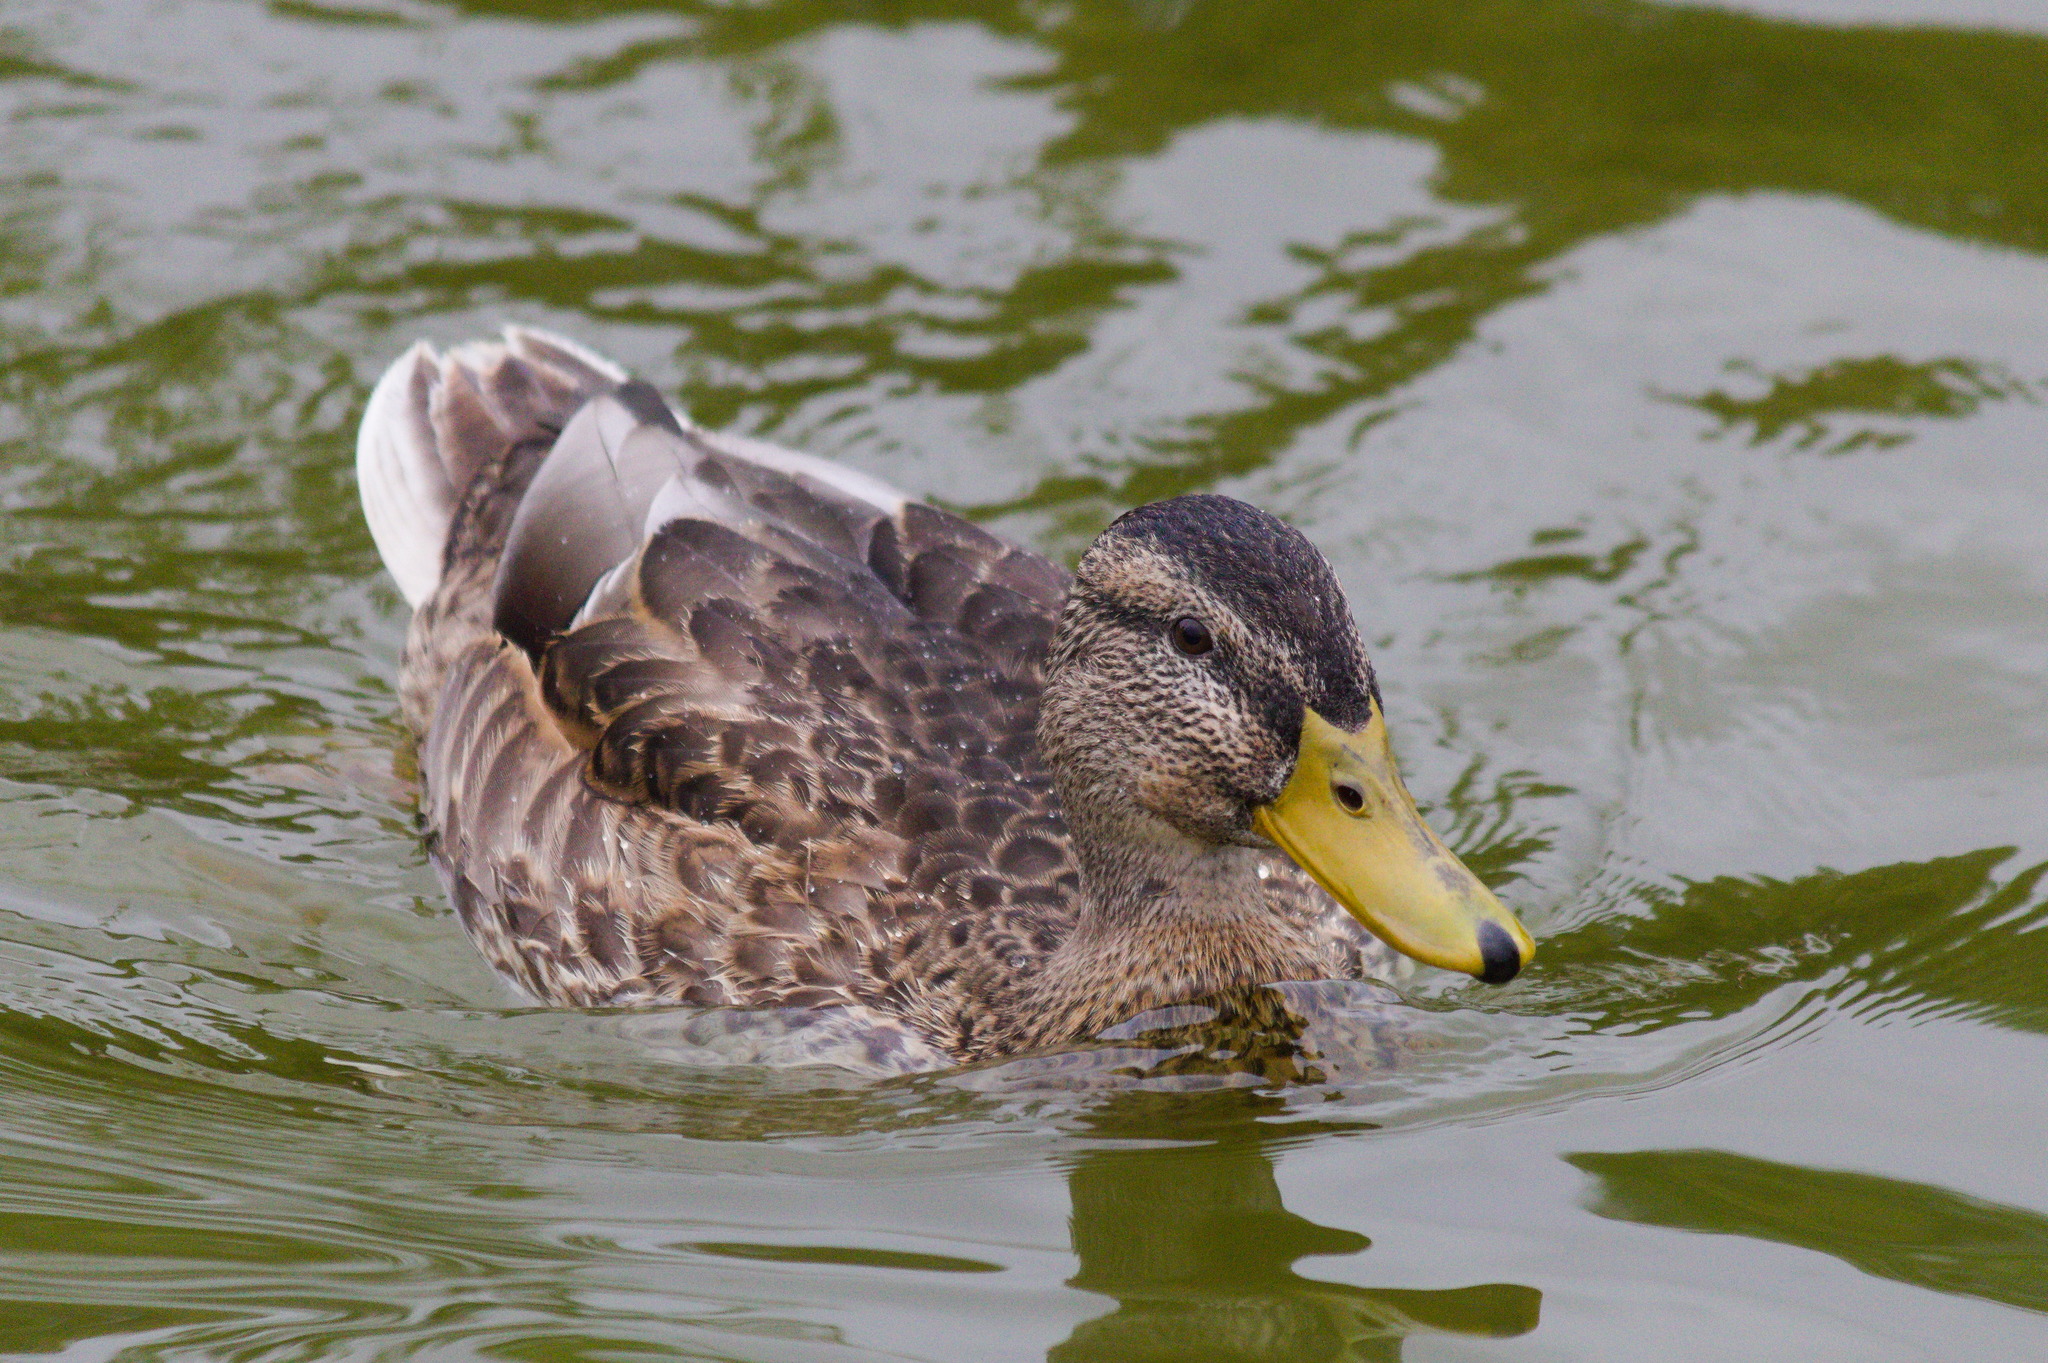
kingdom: Animalia
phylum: Chordata
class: Aves
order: Anseriformes
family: Anatidae
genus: Anas
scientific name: Anas platyrhynchos
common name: Mallard
